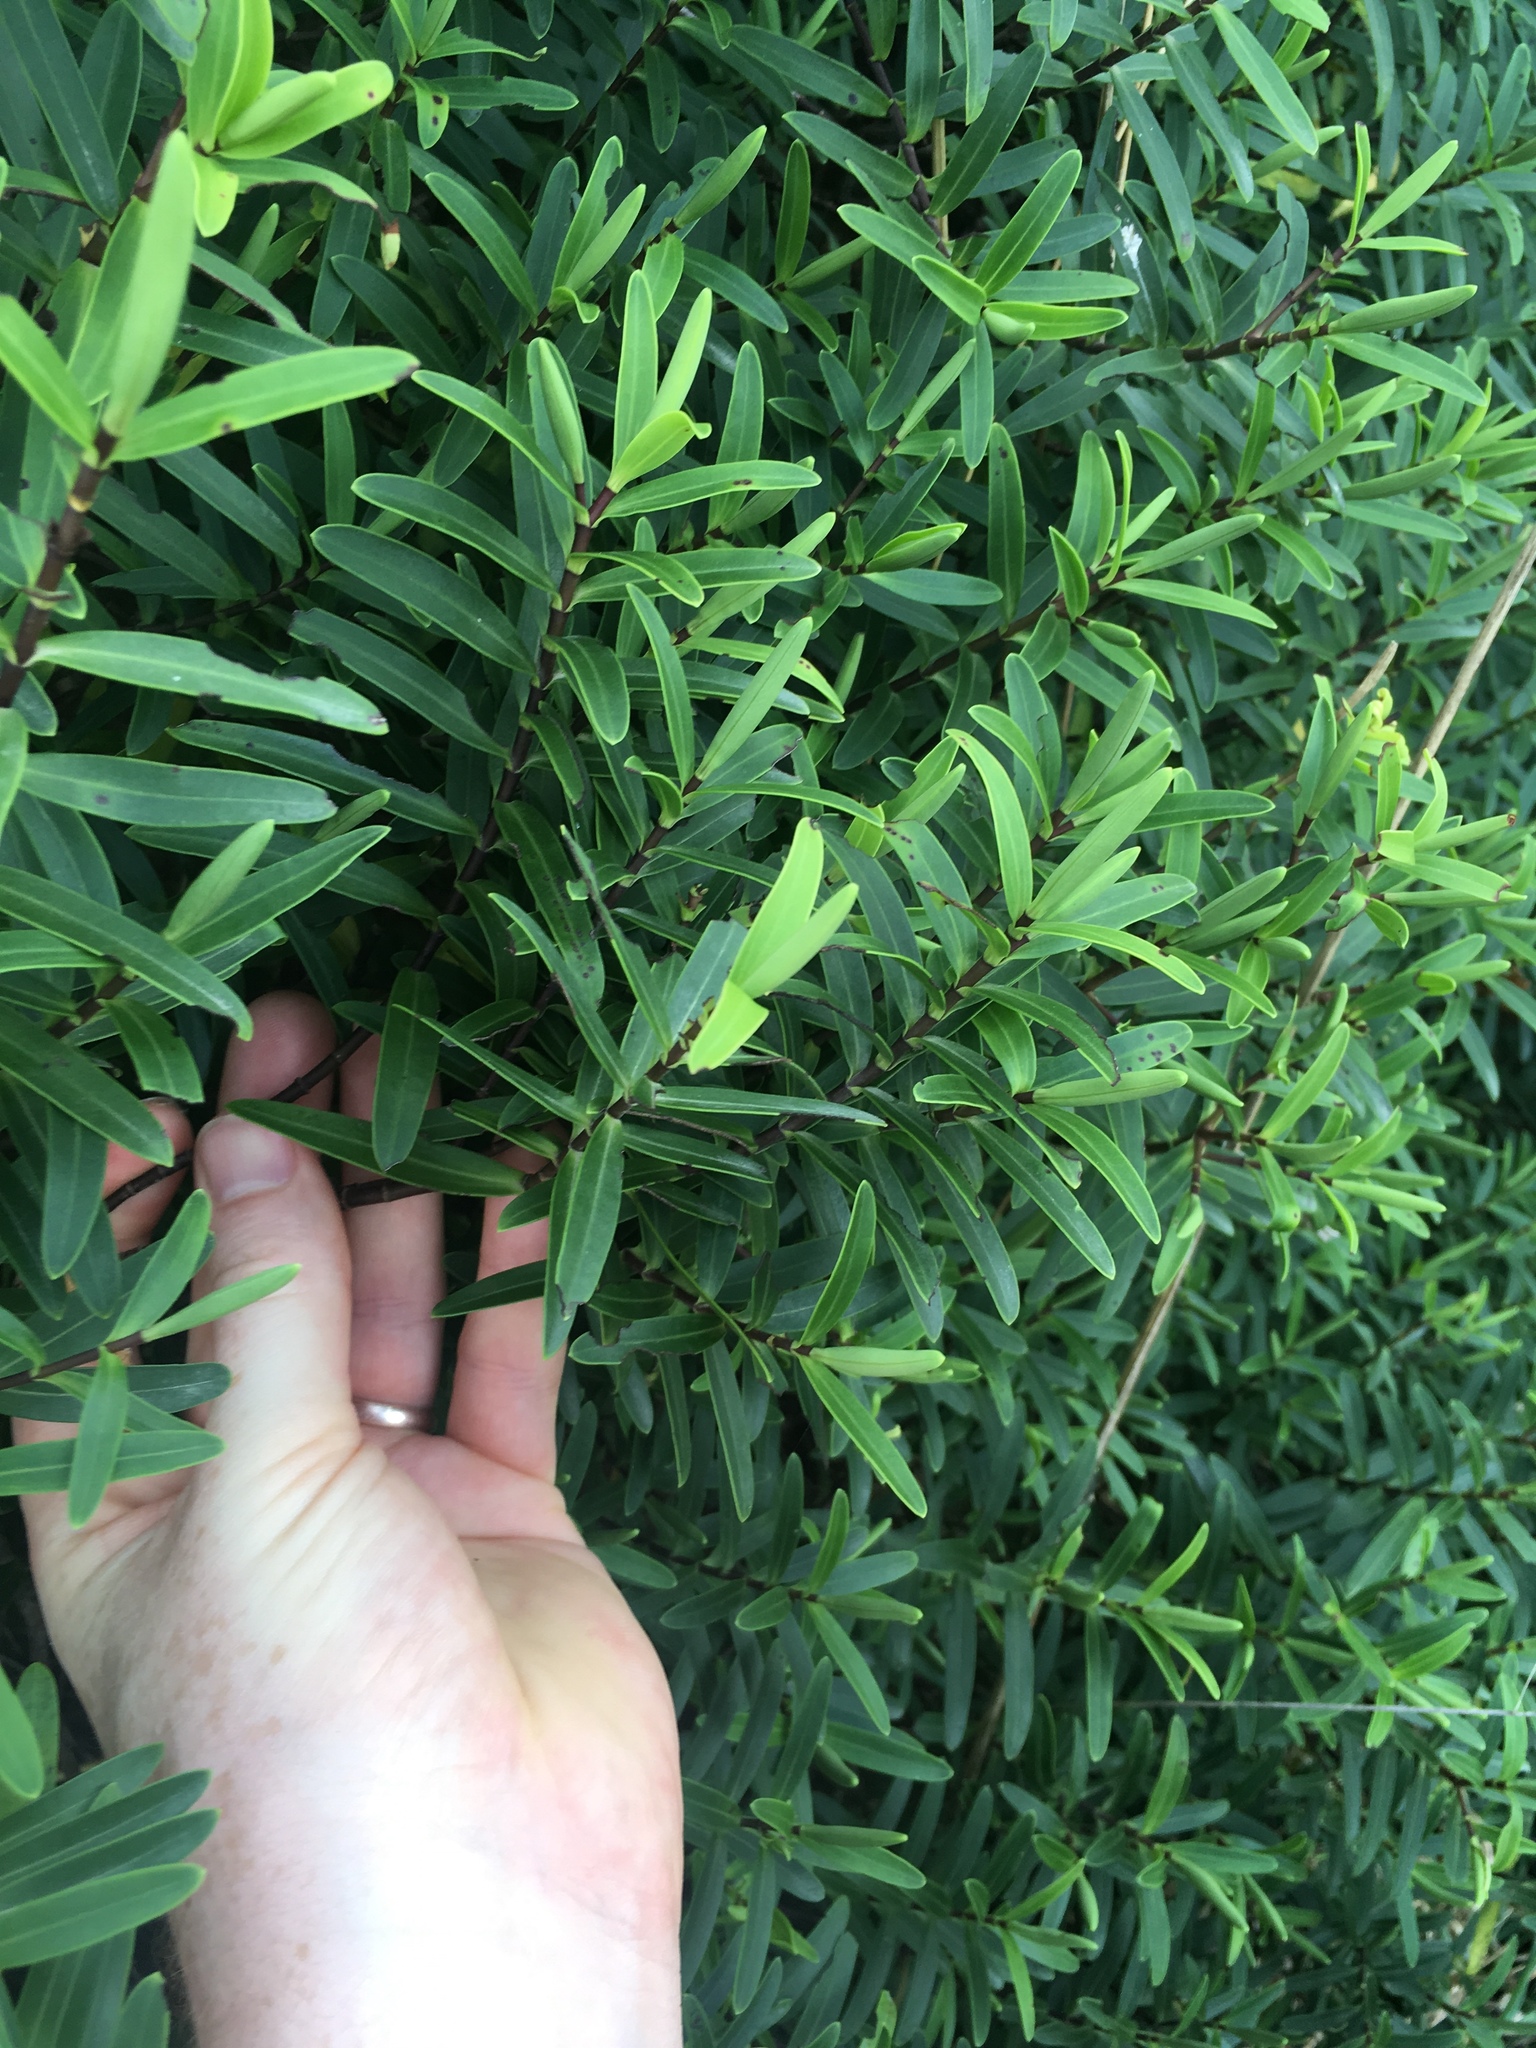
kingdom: Plantae
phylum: Tracheophyta
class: Magnoliopsida
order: Lamiales
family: Plantaginaceae
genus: Veronica
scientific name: Veronica strictissima
